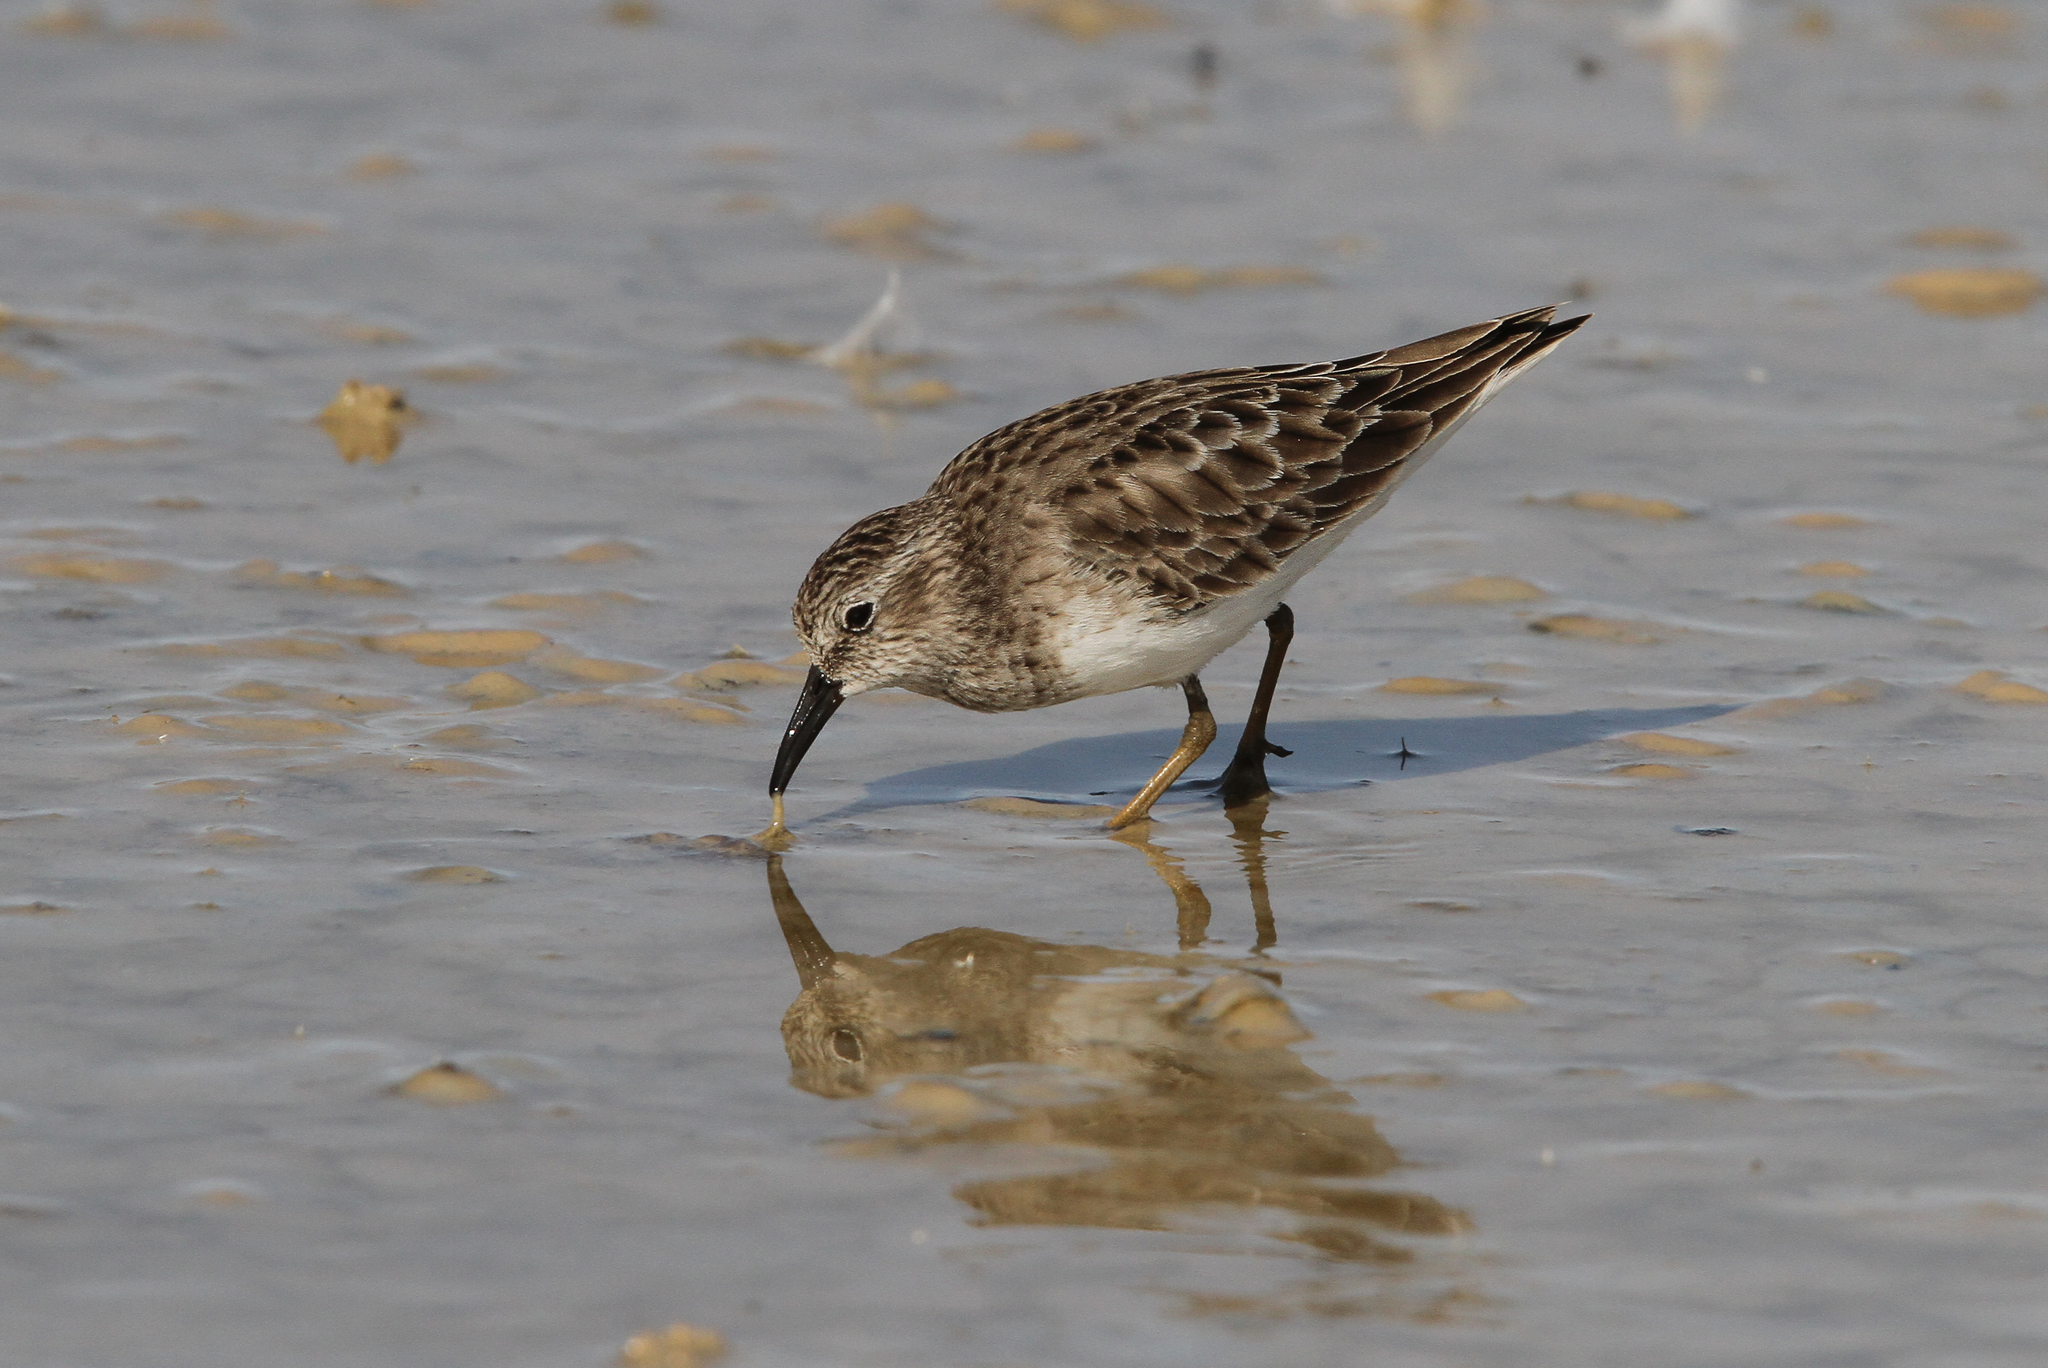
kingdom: Animalia
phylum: Chordata
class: Aves
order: Charadriiformes
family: Scolopacidae
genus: Calidris
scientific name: Calidris minutilla
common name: Least sandpiper
